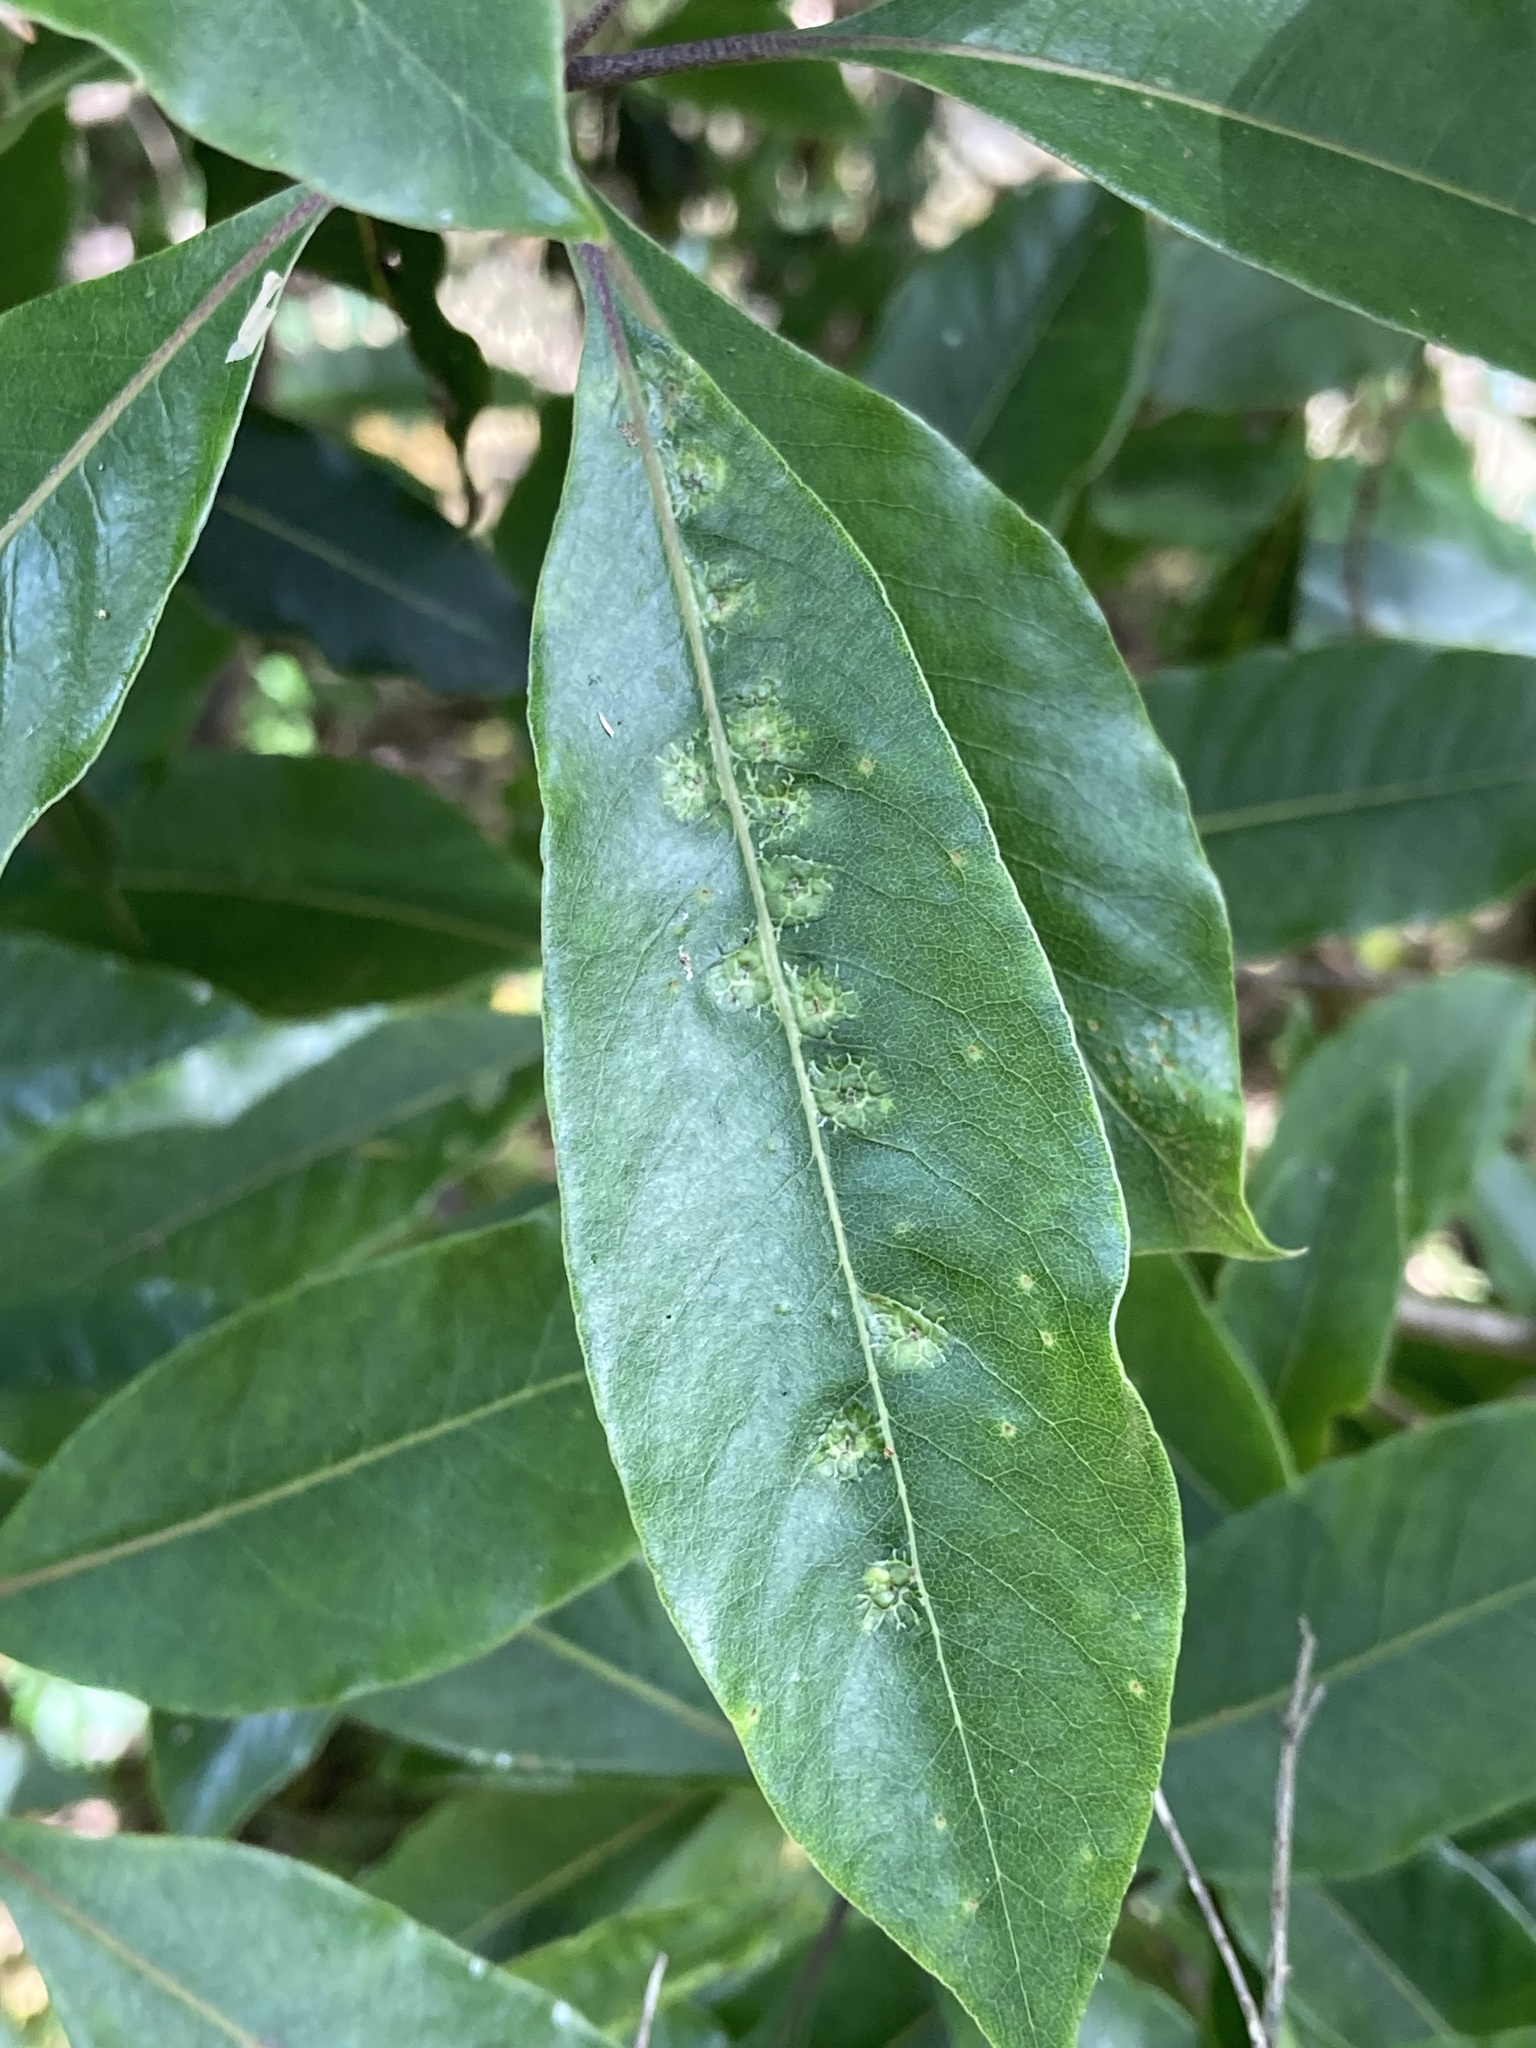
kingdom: Animalia
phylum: Arthropoda
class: Insecta
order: Diptera
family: Agromyzidae
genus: Phytoliriomyza
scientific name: Phytoliriomyza pittosporophylli
